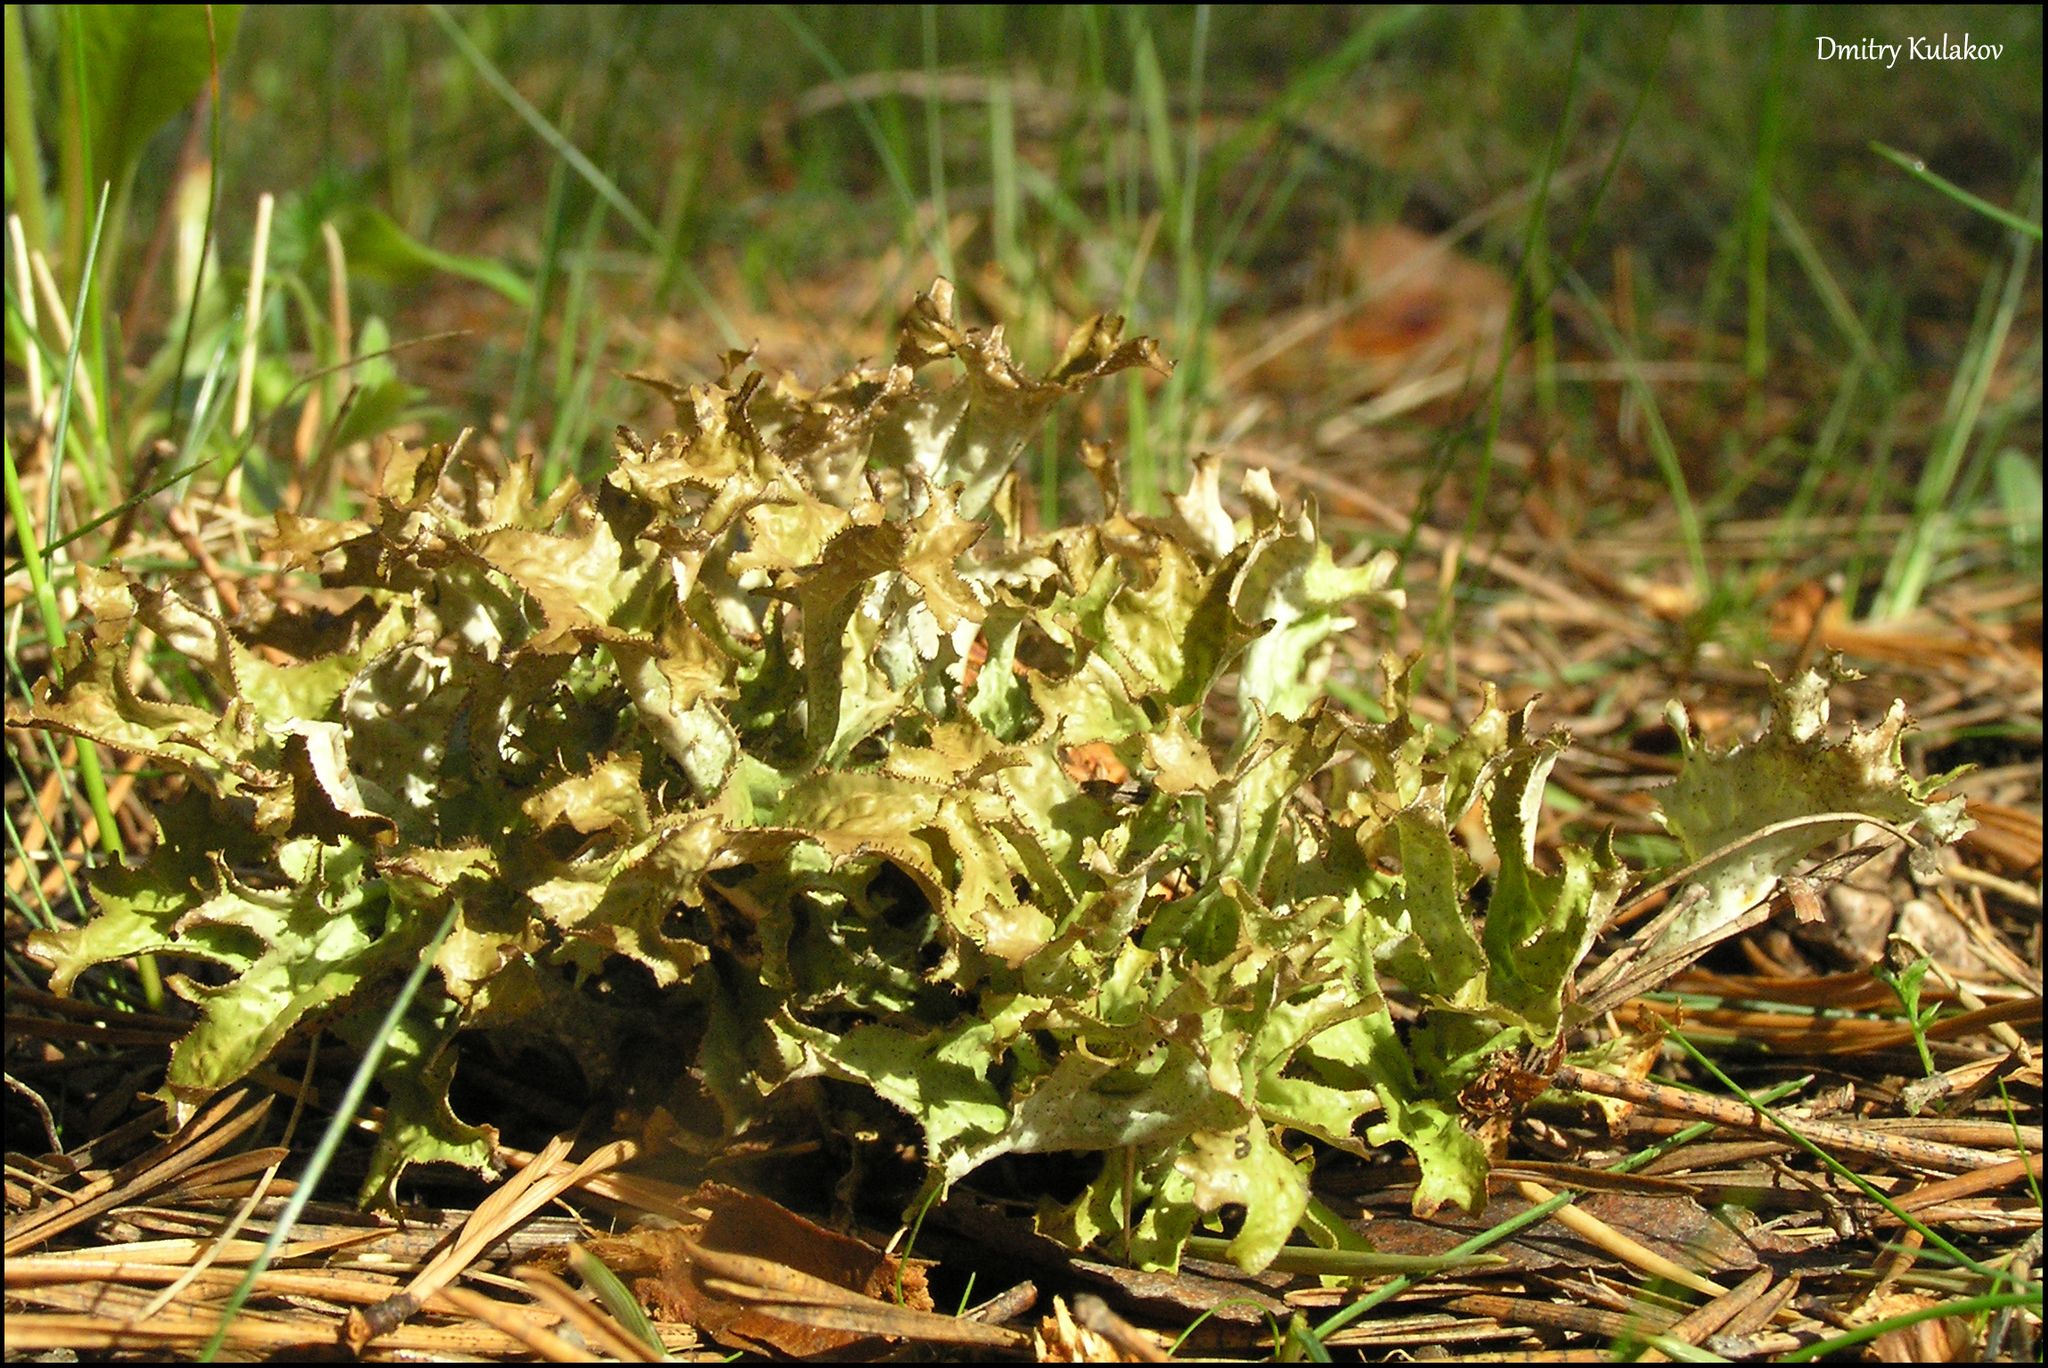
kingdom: Fungi
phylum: Ascomycota
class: Lecanoromycetes
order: Lecanorales
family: Parmeliaceae
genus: Cetraria
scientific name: Cetraria islandica
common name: Iceland lichen
